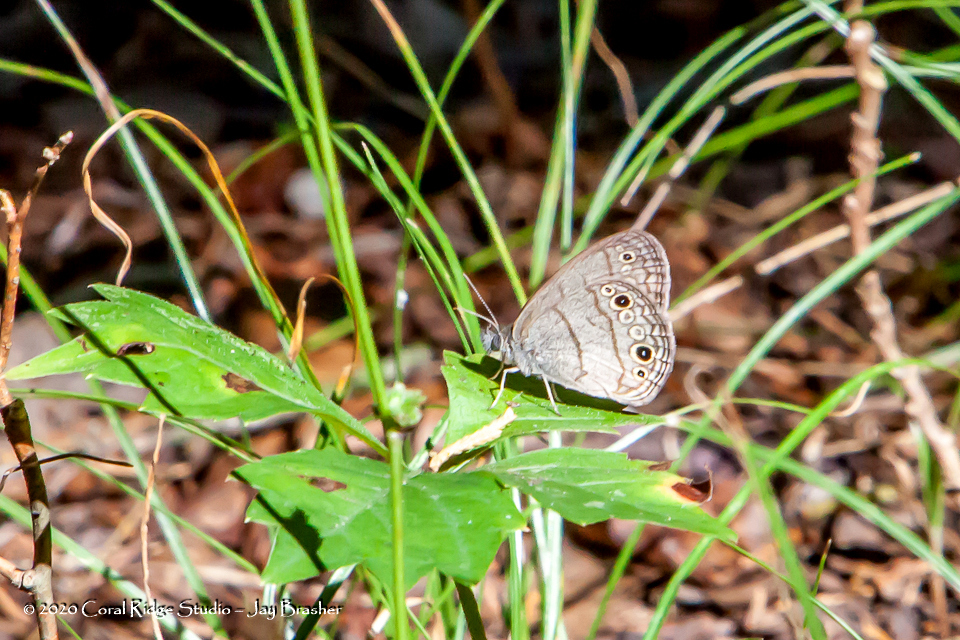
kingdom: Animalia
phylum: Arthropoda
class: Insecta
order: Lepidoptera
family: Nymphalidae
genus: Hermeuptychia
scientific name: Hermeuptychia hermes
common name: Hermes satyr
